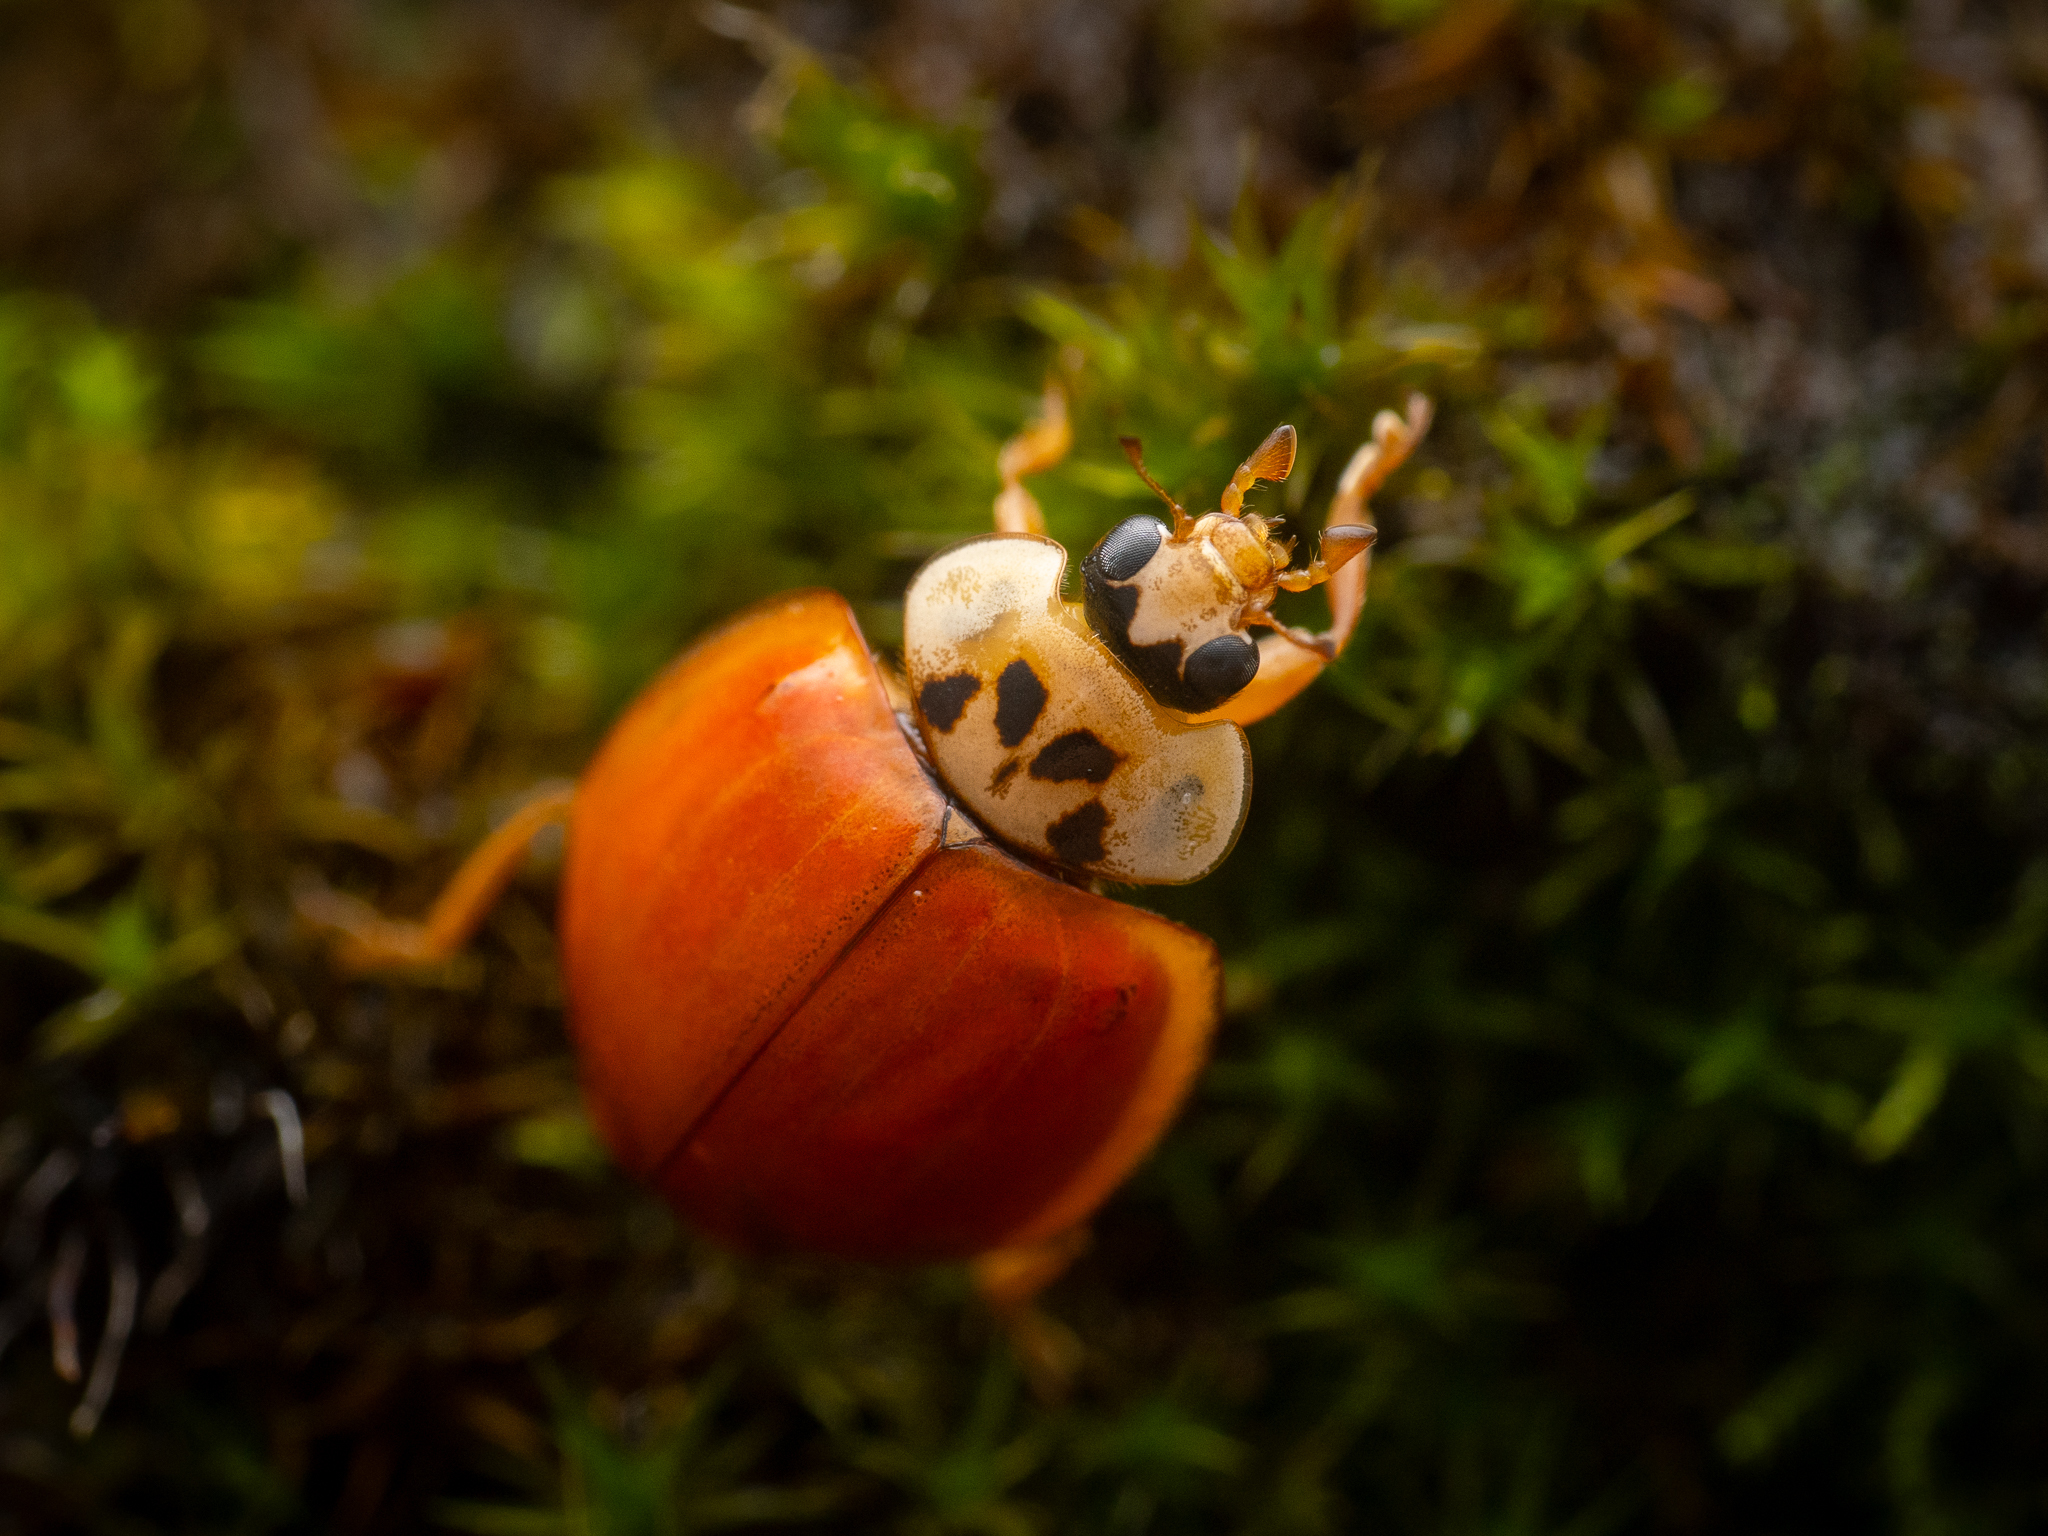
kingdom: Animalia
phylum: Arthropoda
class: Insecta
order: Coleoptera
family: Coccinellidae
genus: Harmonia
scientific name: Harmonia axyridis
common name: Harlequin ladybird
